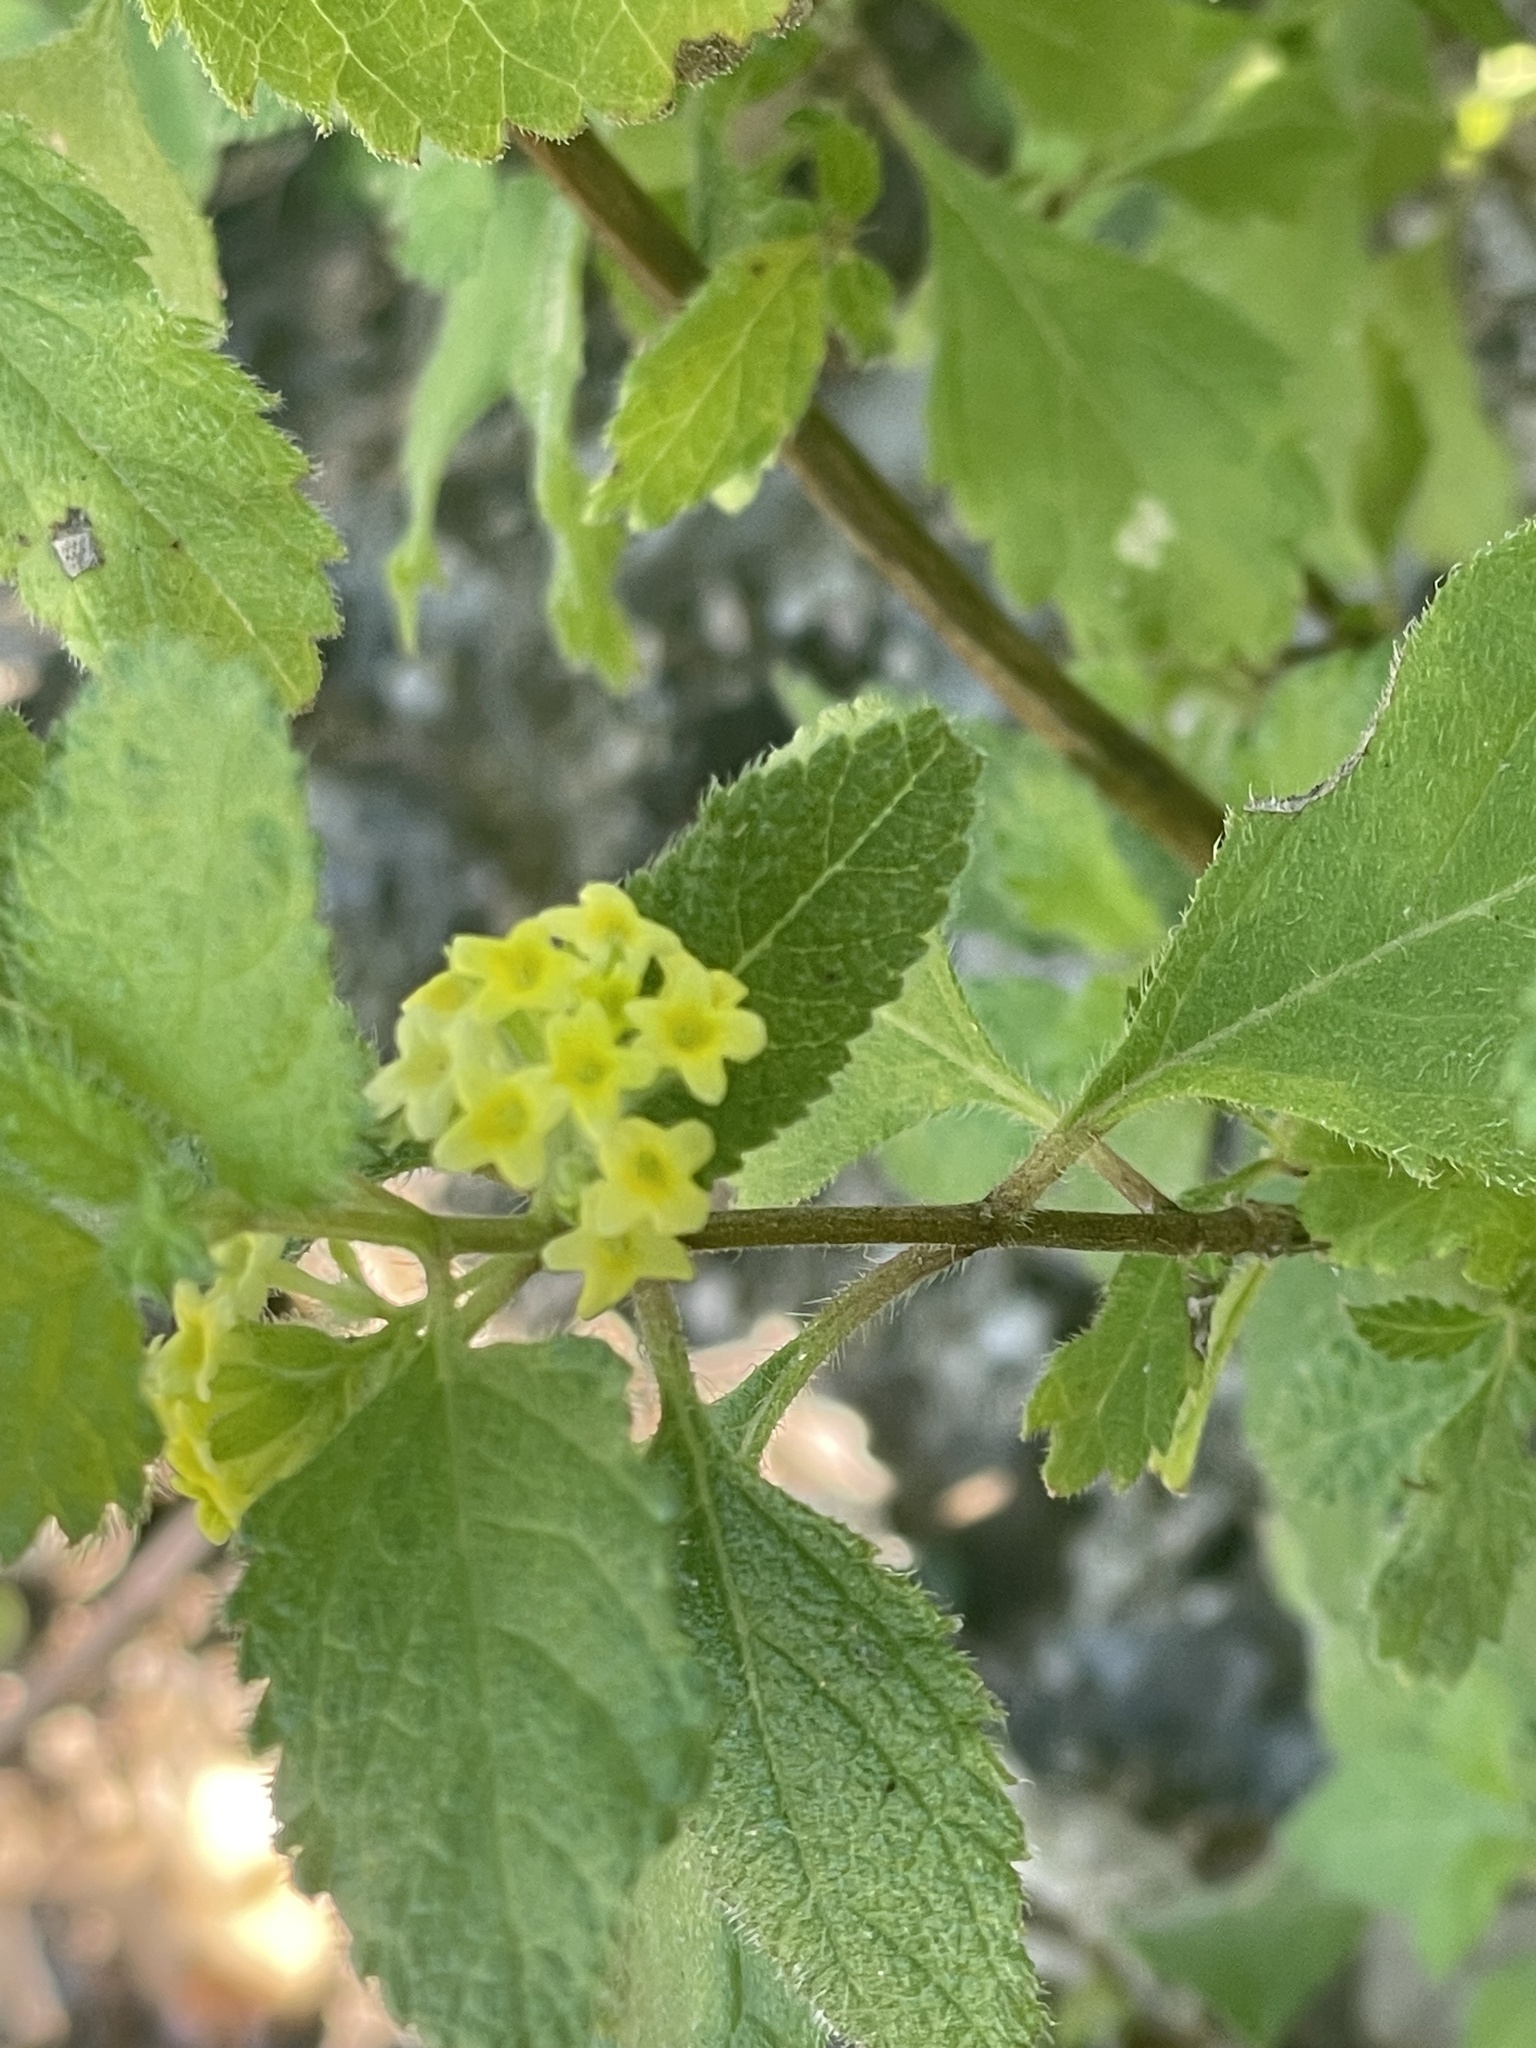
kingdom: Plantae
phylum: Tracheophyta
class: Magnoliopsida
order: Lamiales
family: Verbenaceae
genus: Aloysia
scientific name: Aloysia barbata
